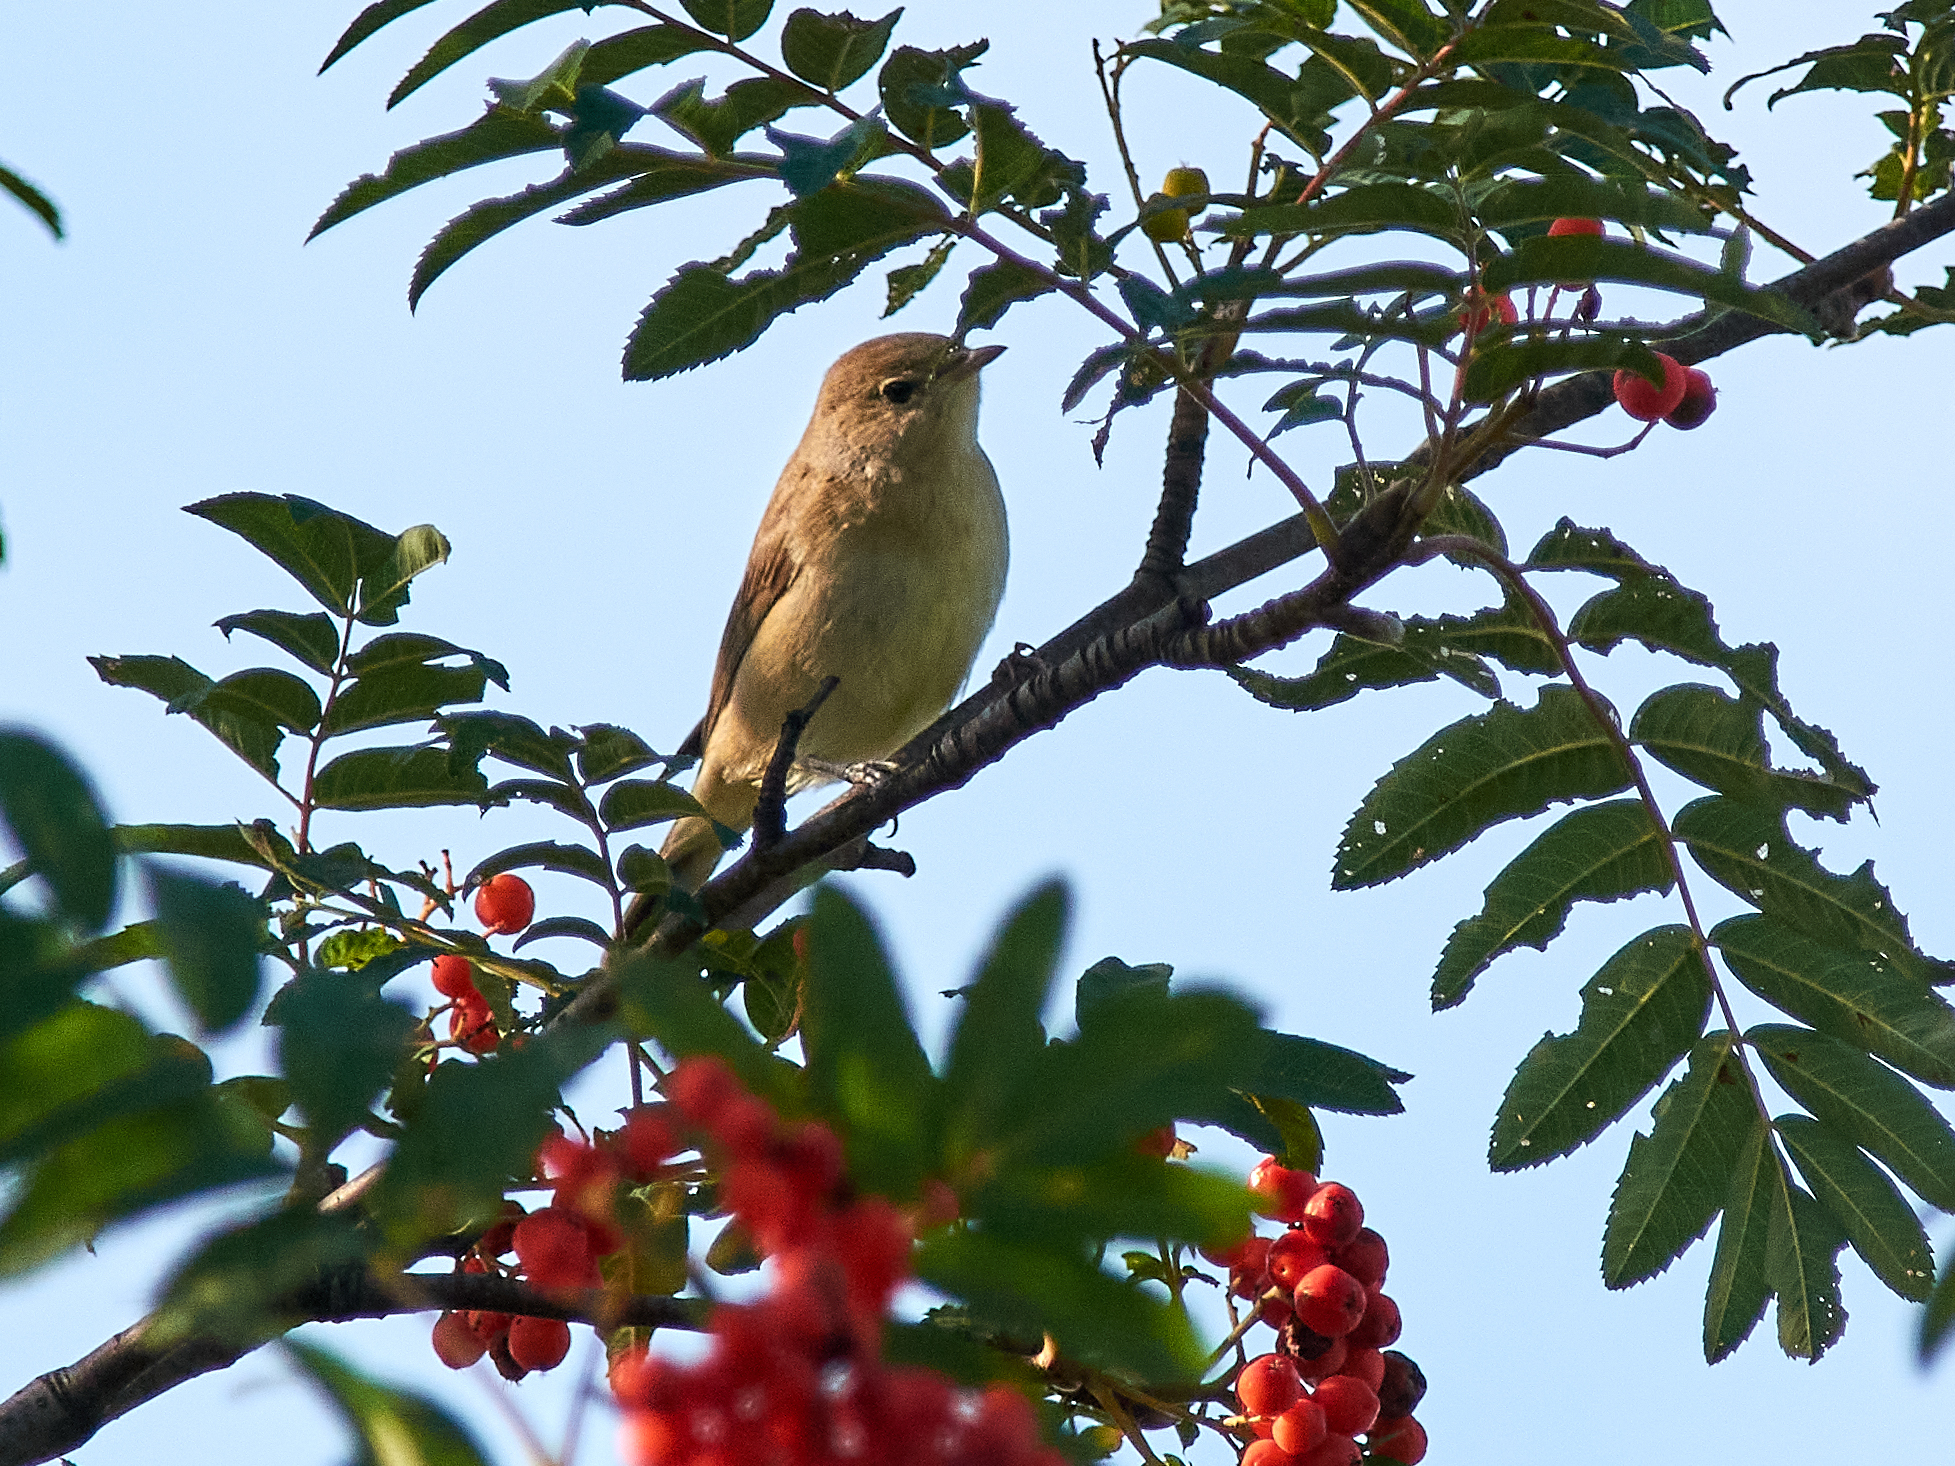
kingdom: Animalia
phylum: Chordata
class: Aves
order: Passeriformes
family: Sylviidae
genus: Sylvia
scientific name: Sylvia borin
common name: Garden warbler
